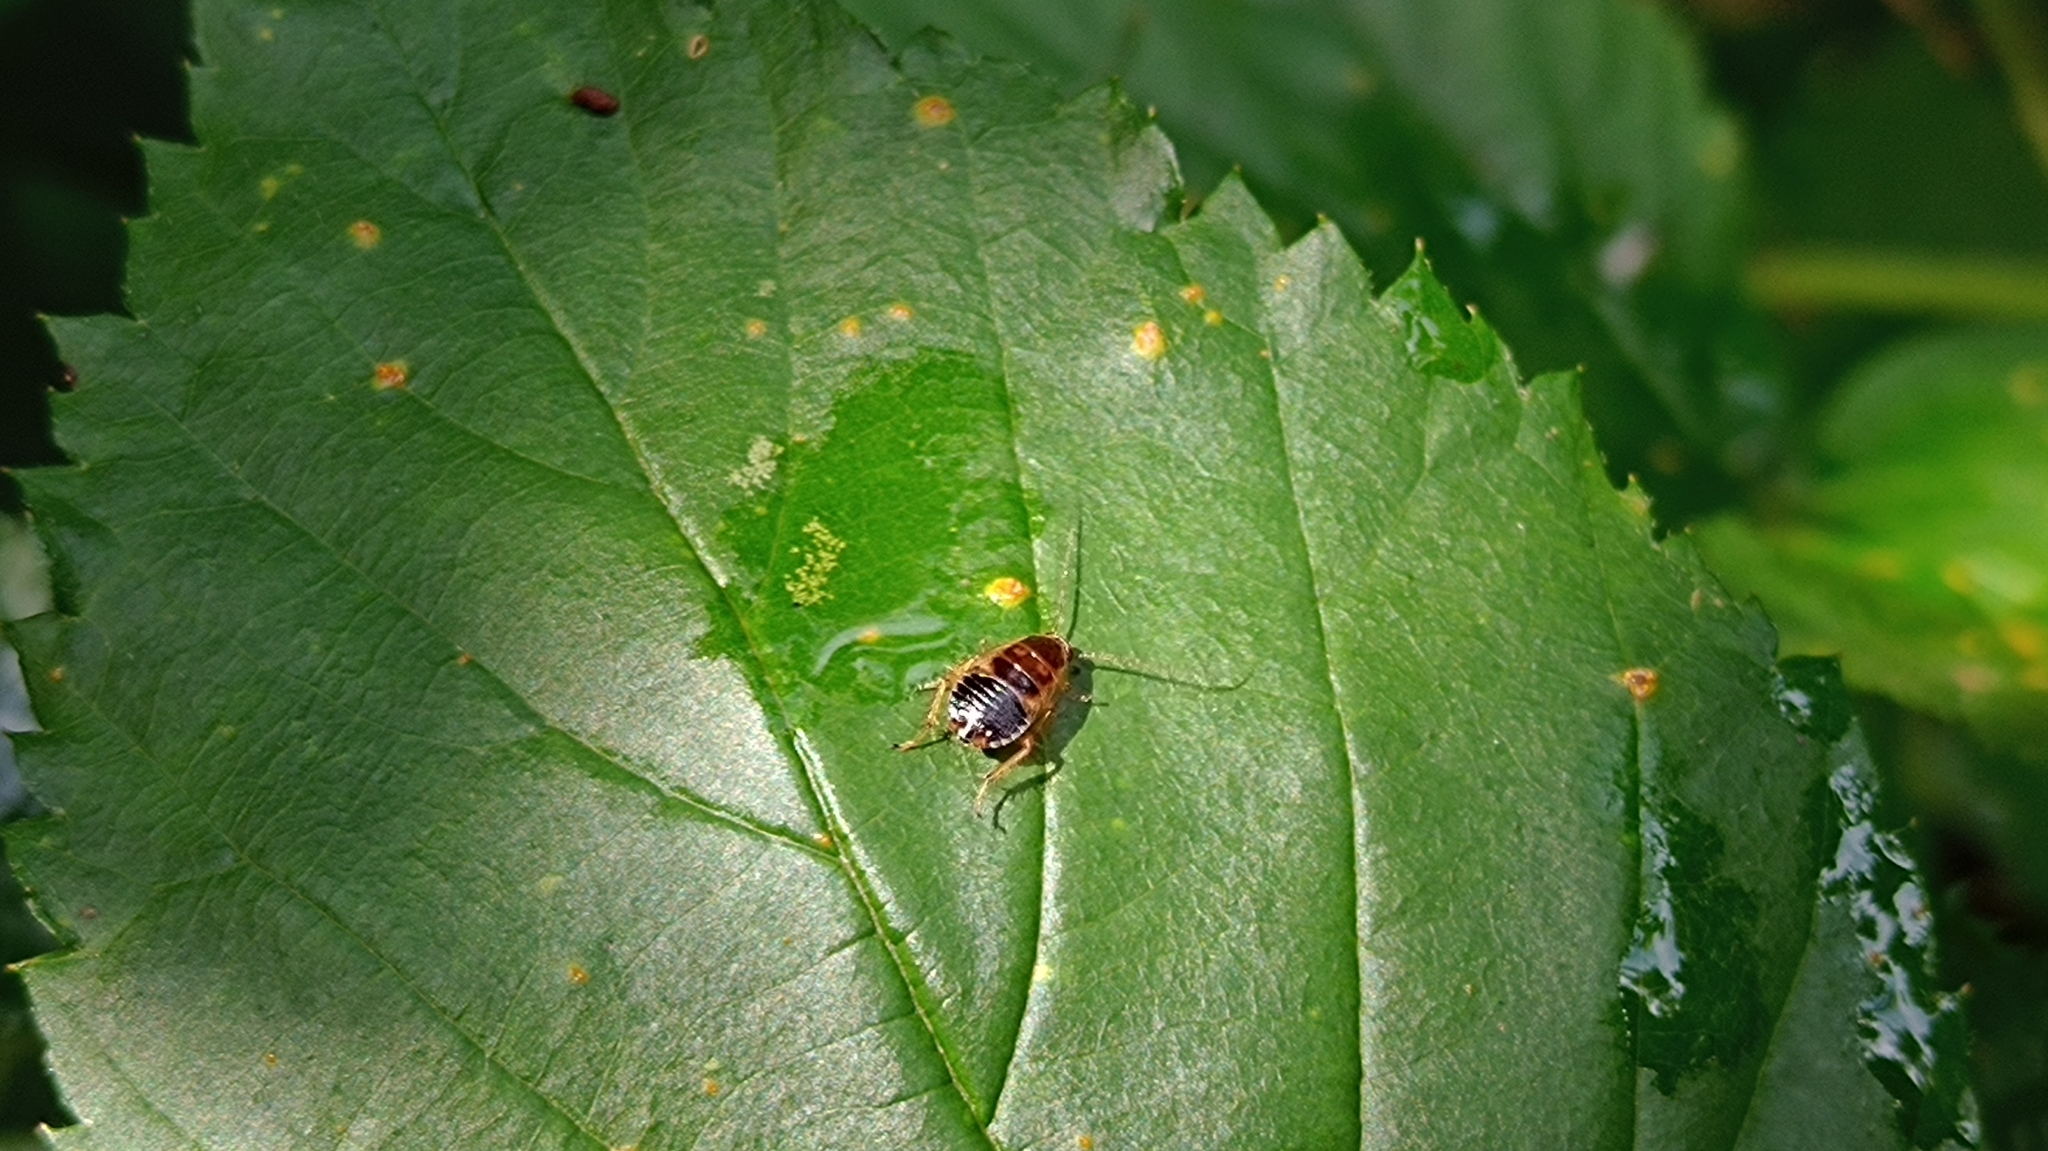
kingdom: Animalia
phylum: Arthropoda
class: Insecta
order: Blattodea
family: Ectobiidae
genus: Ectobius
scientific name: Ectobius sylvestris
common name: Forest cockroach
